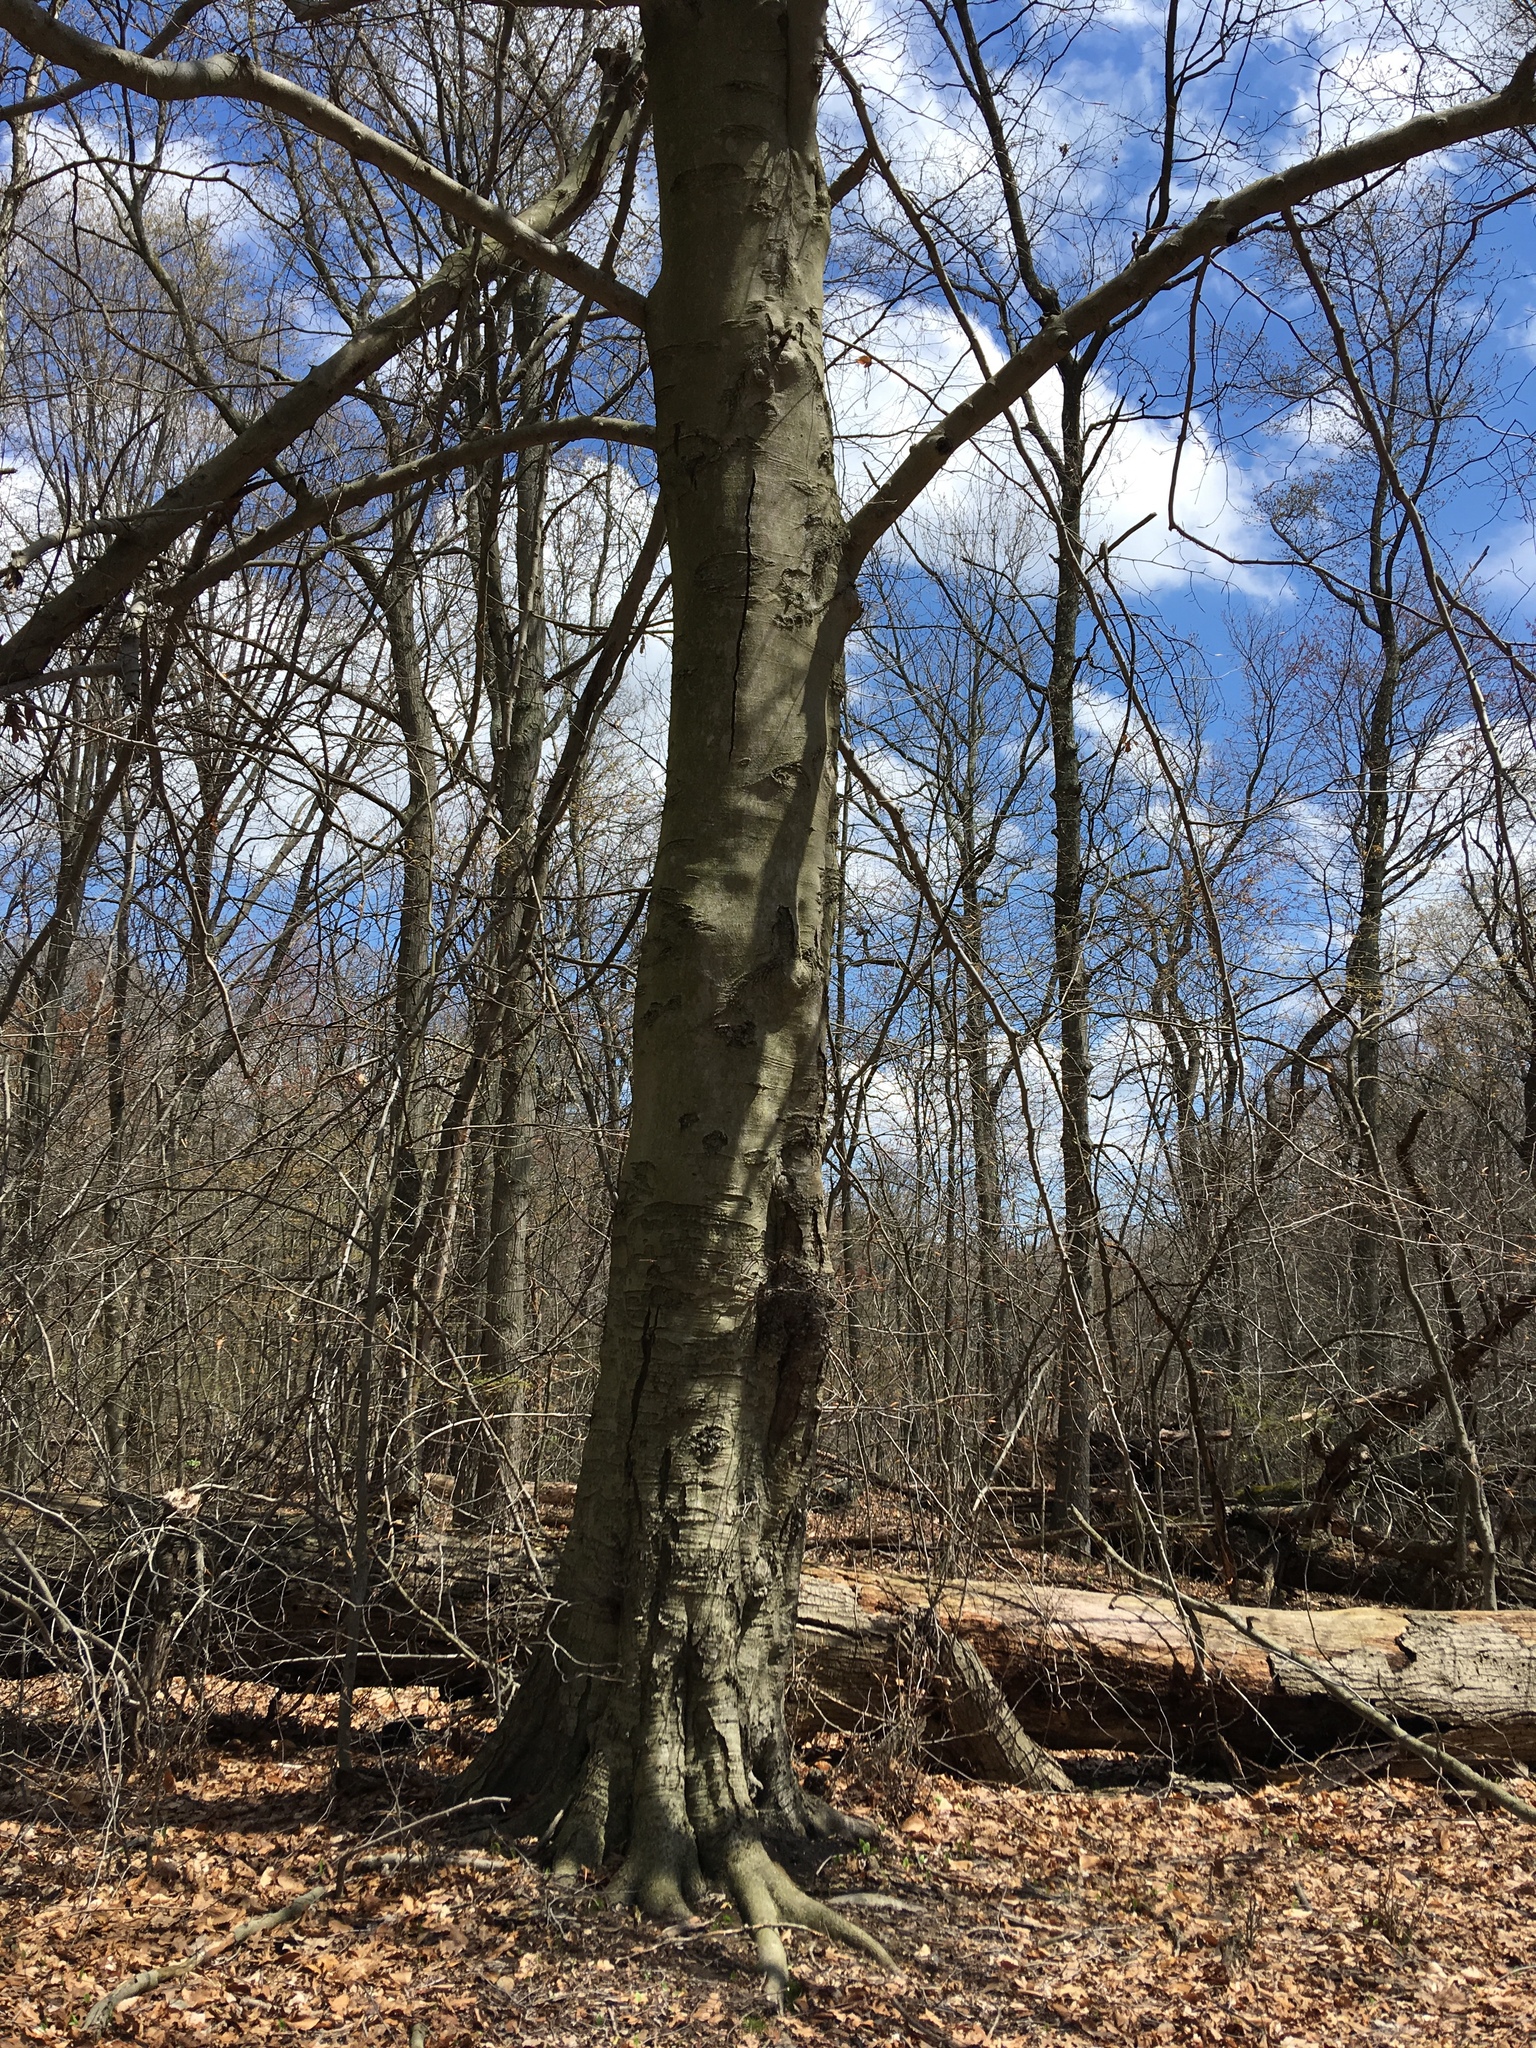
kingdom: Plantae
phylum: Tracheophyta
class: Magnoliopsida
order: Fagales
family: Fagaceae
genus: Fagus
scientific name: Fagus grandifolia
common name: American beech
